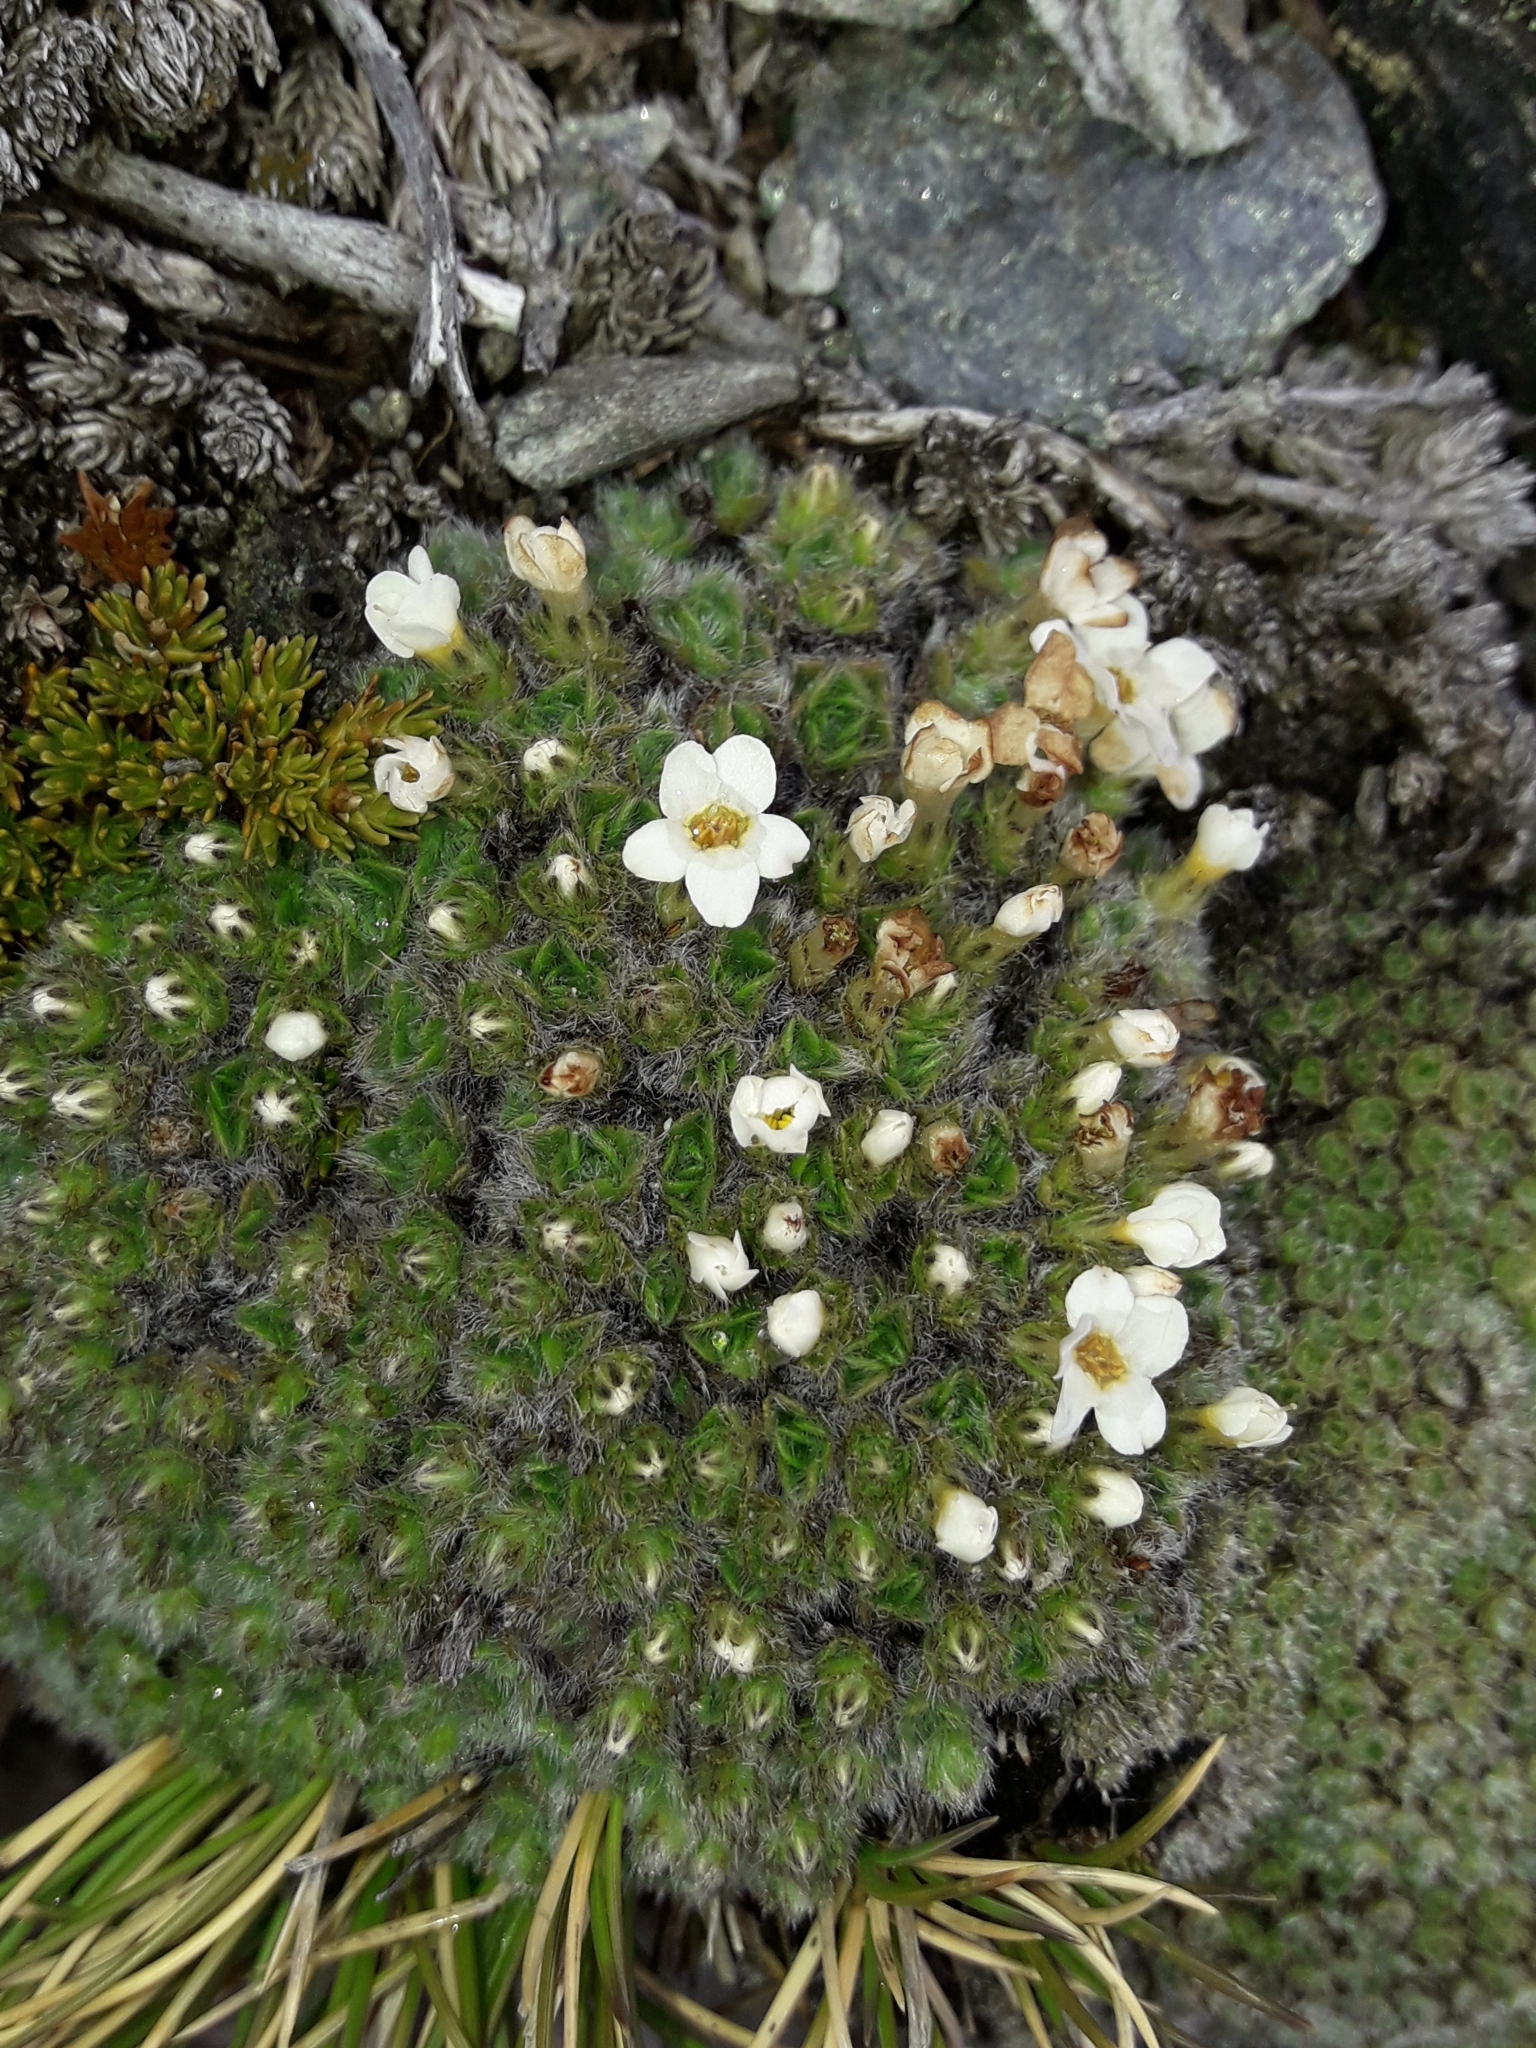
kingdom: Plantae
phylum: Tracheophyta
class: Magnoliopsida
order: Boraginales
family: Boraginaceae
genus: Myosotis
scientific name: Myosotis pulvinaris
